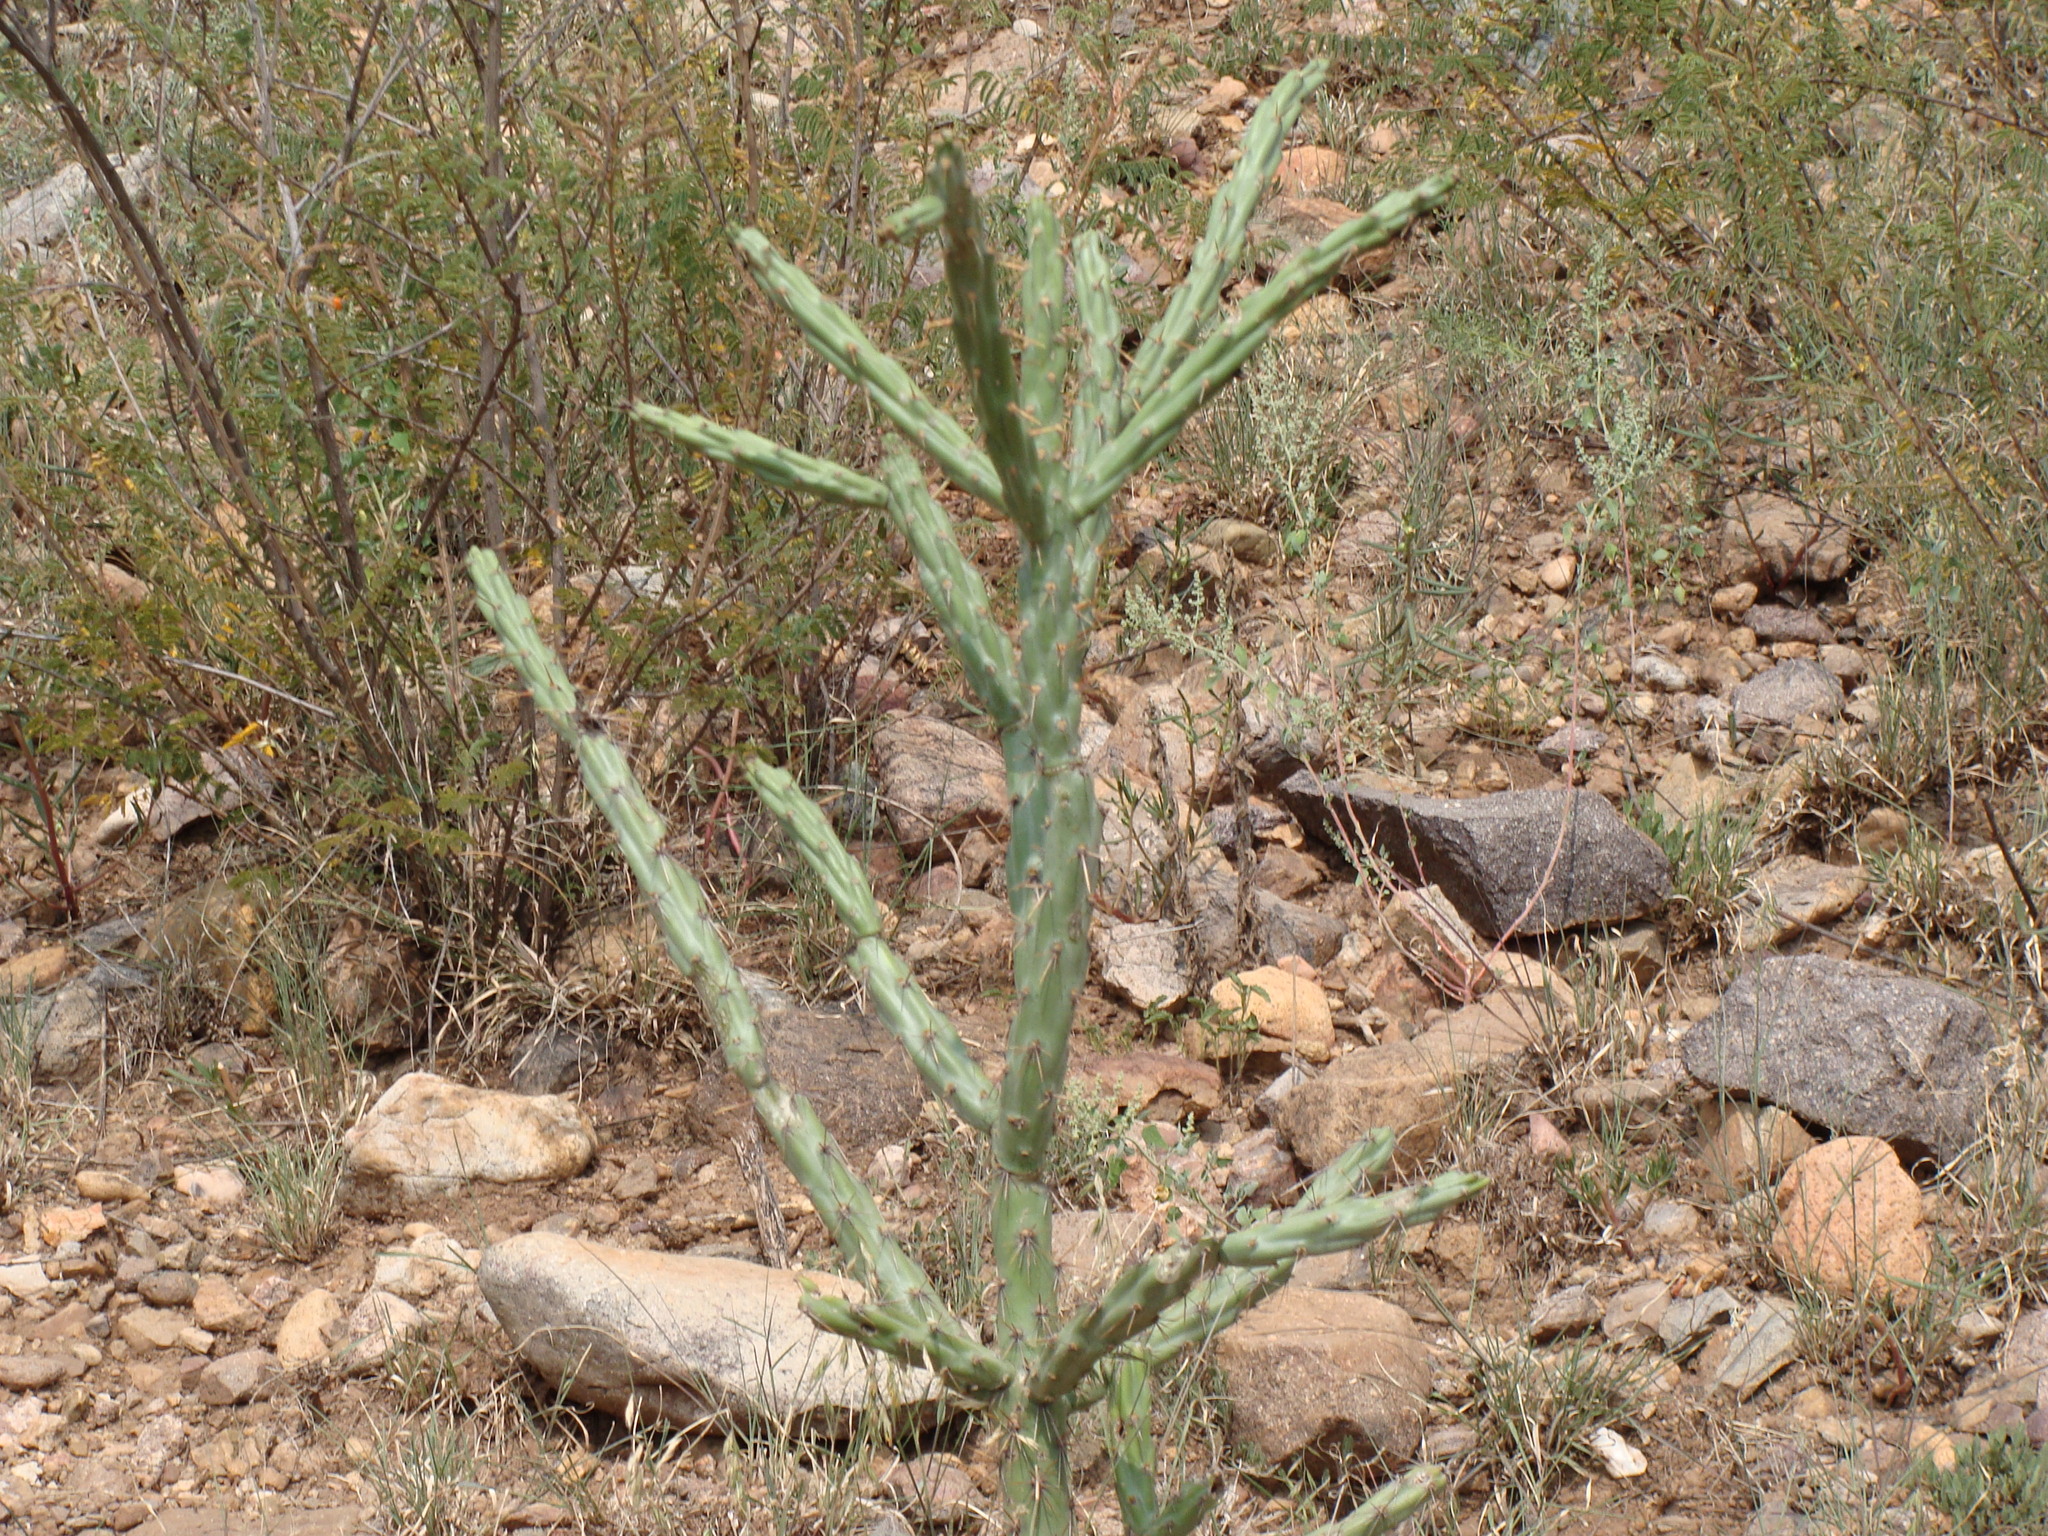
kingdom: Plantae
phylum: Tracheophyta
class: Magnoliopsida
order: Caryophyllales
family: Cactaceae
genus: Cylindropuntia
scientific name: Cylindropuntia thurberi
